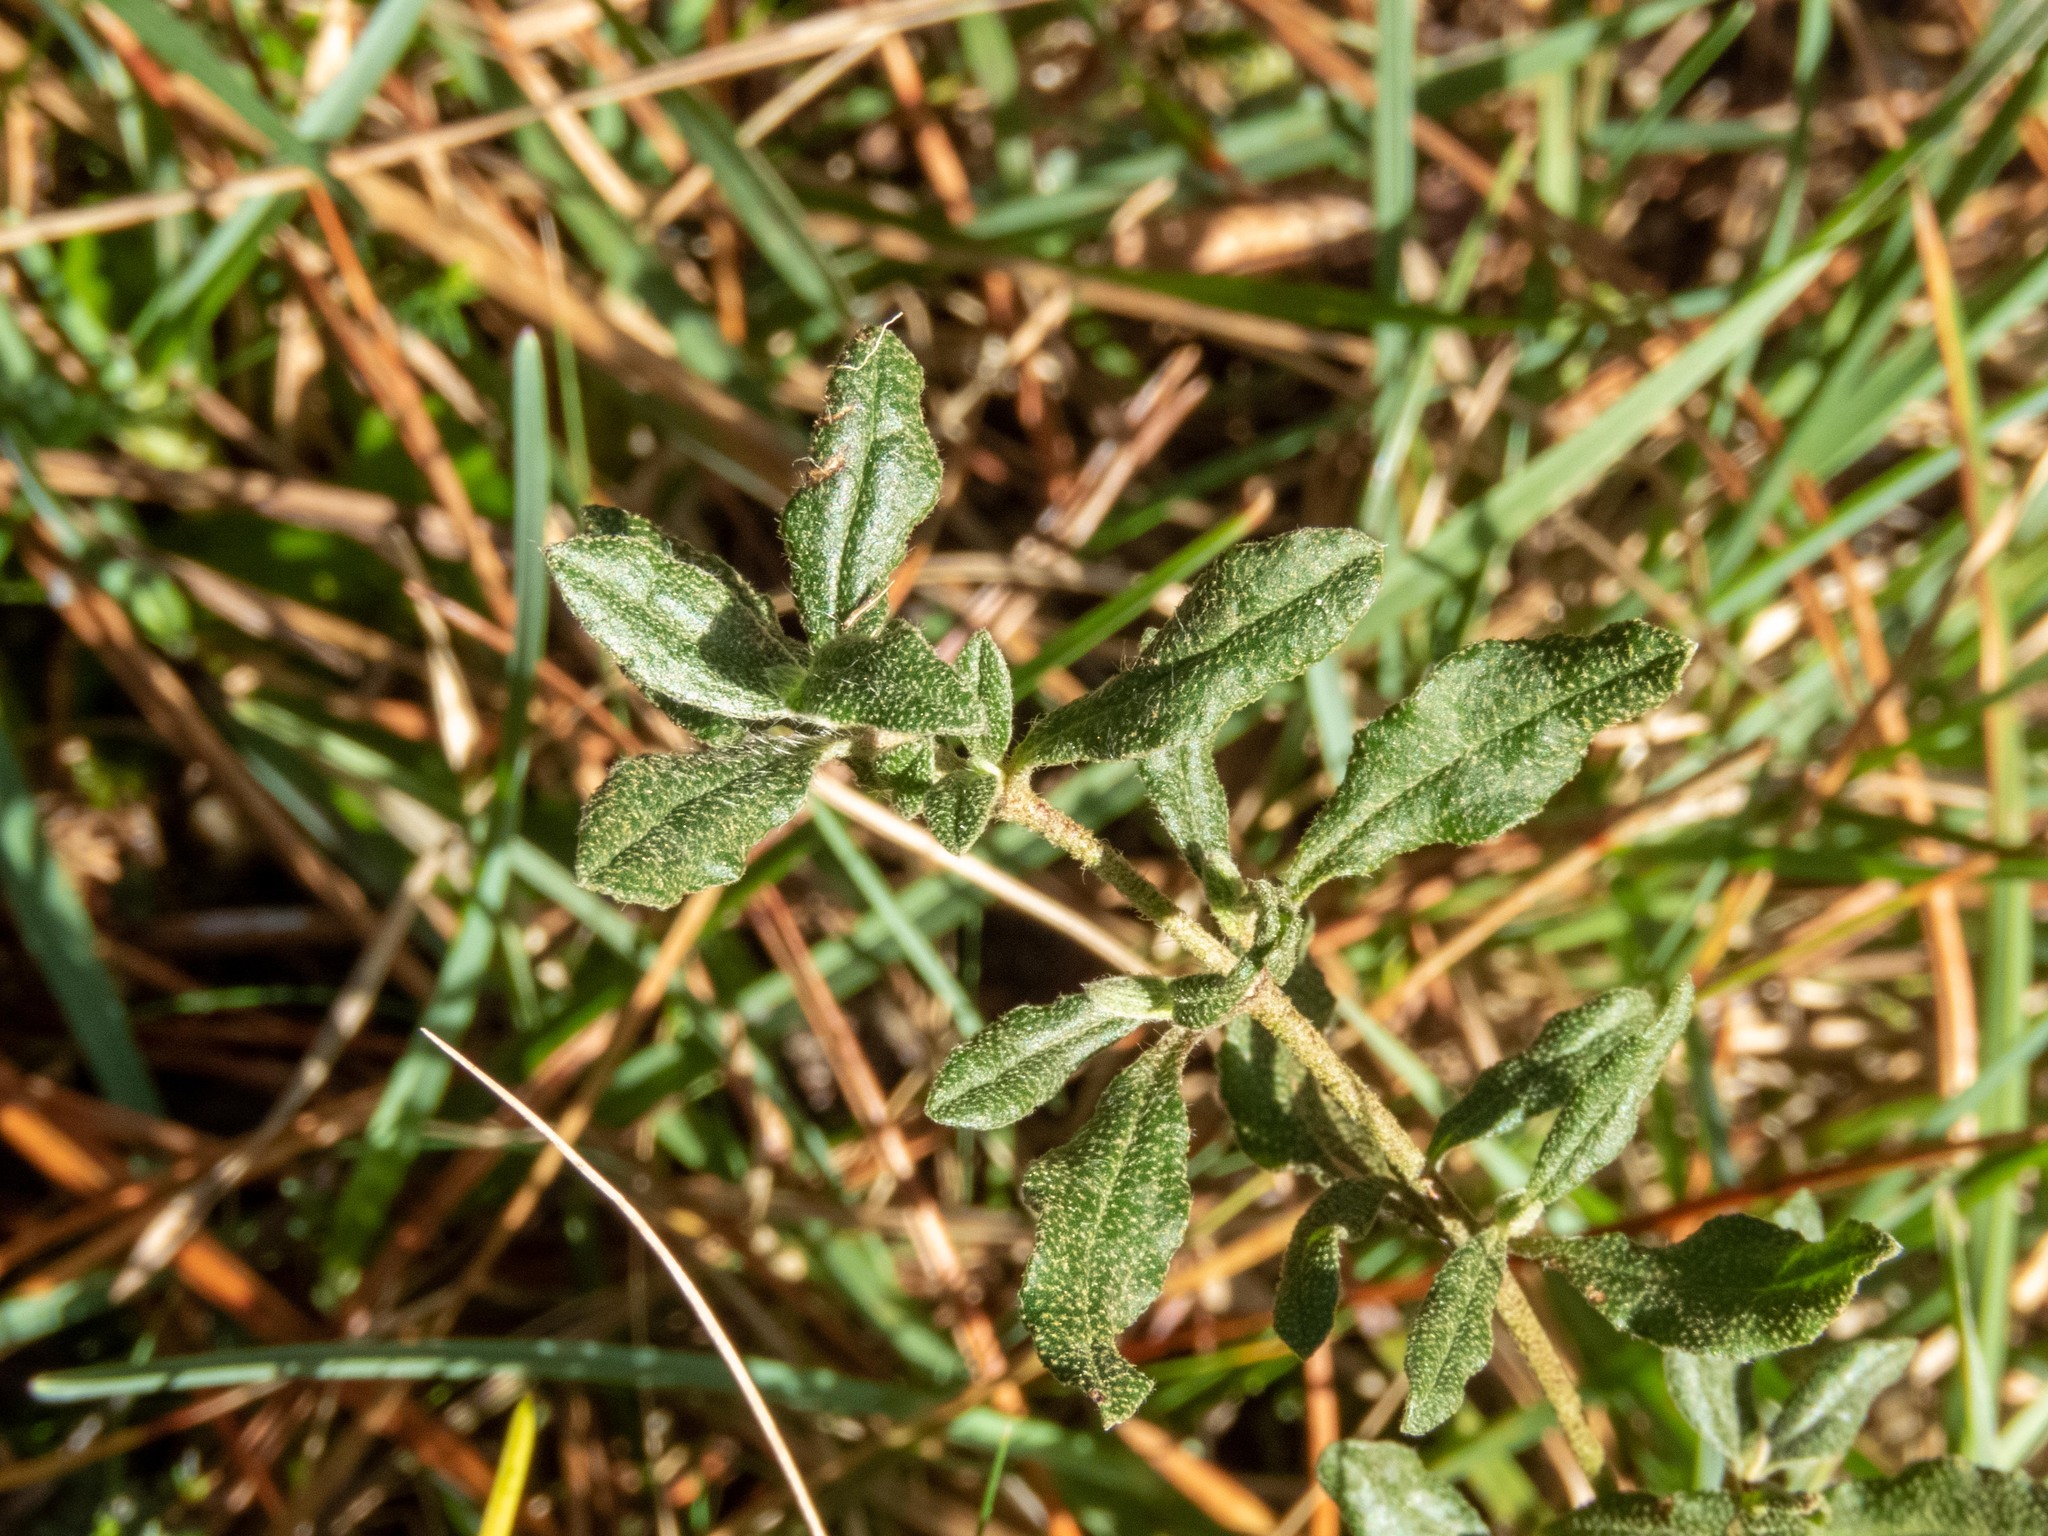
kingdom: Plantae
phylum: Tracheophyta
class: Magnoliopsida
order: Malvales
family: Cistaceae
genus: Halimium
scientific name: Halimium lasianthum
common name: Lisbon false sun-rose
